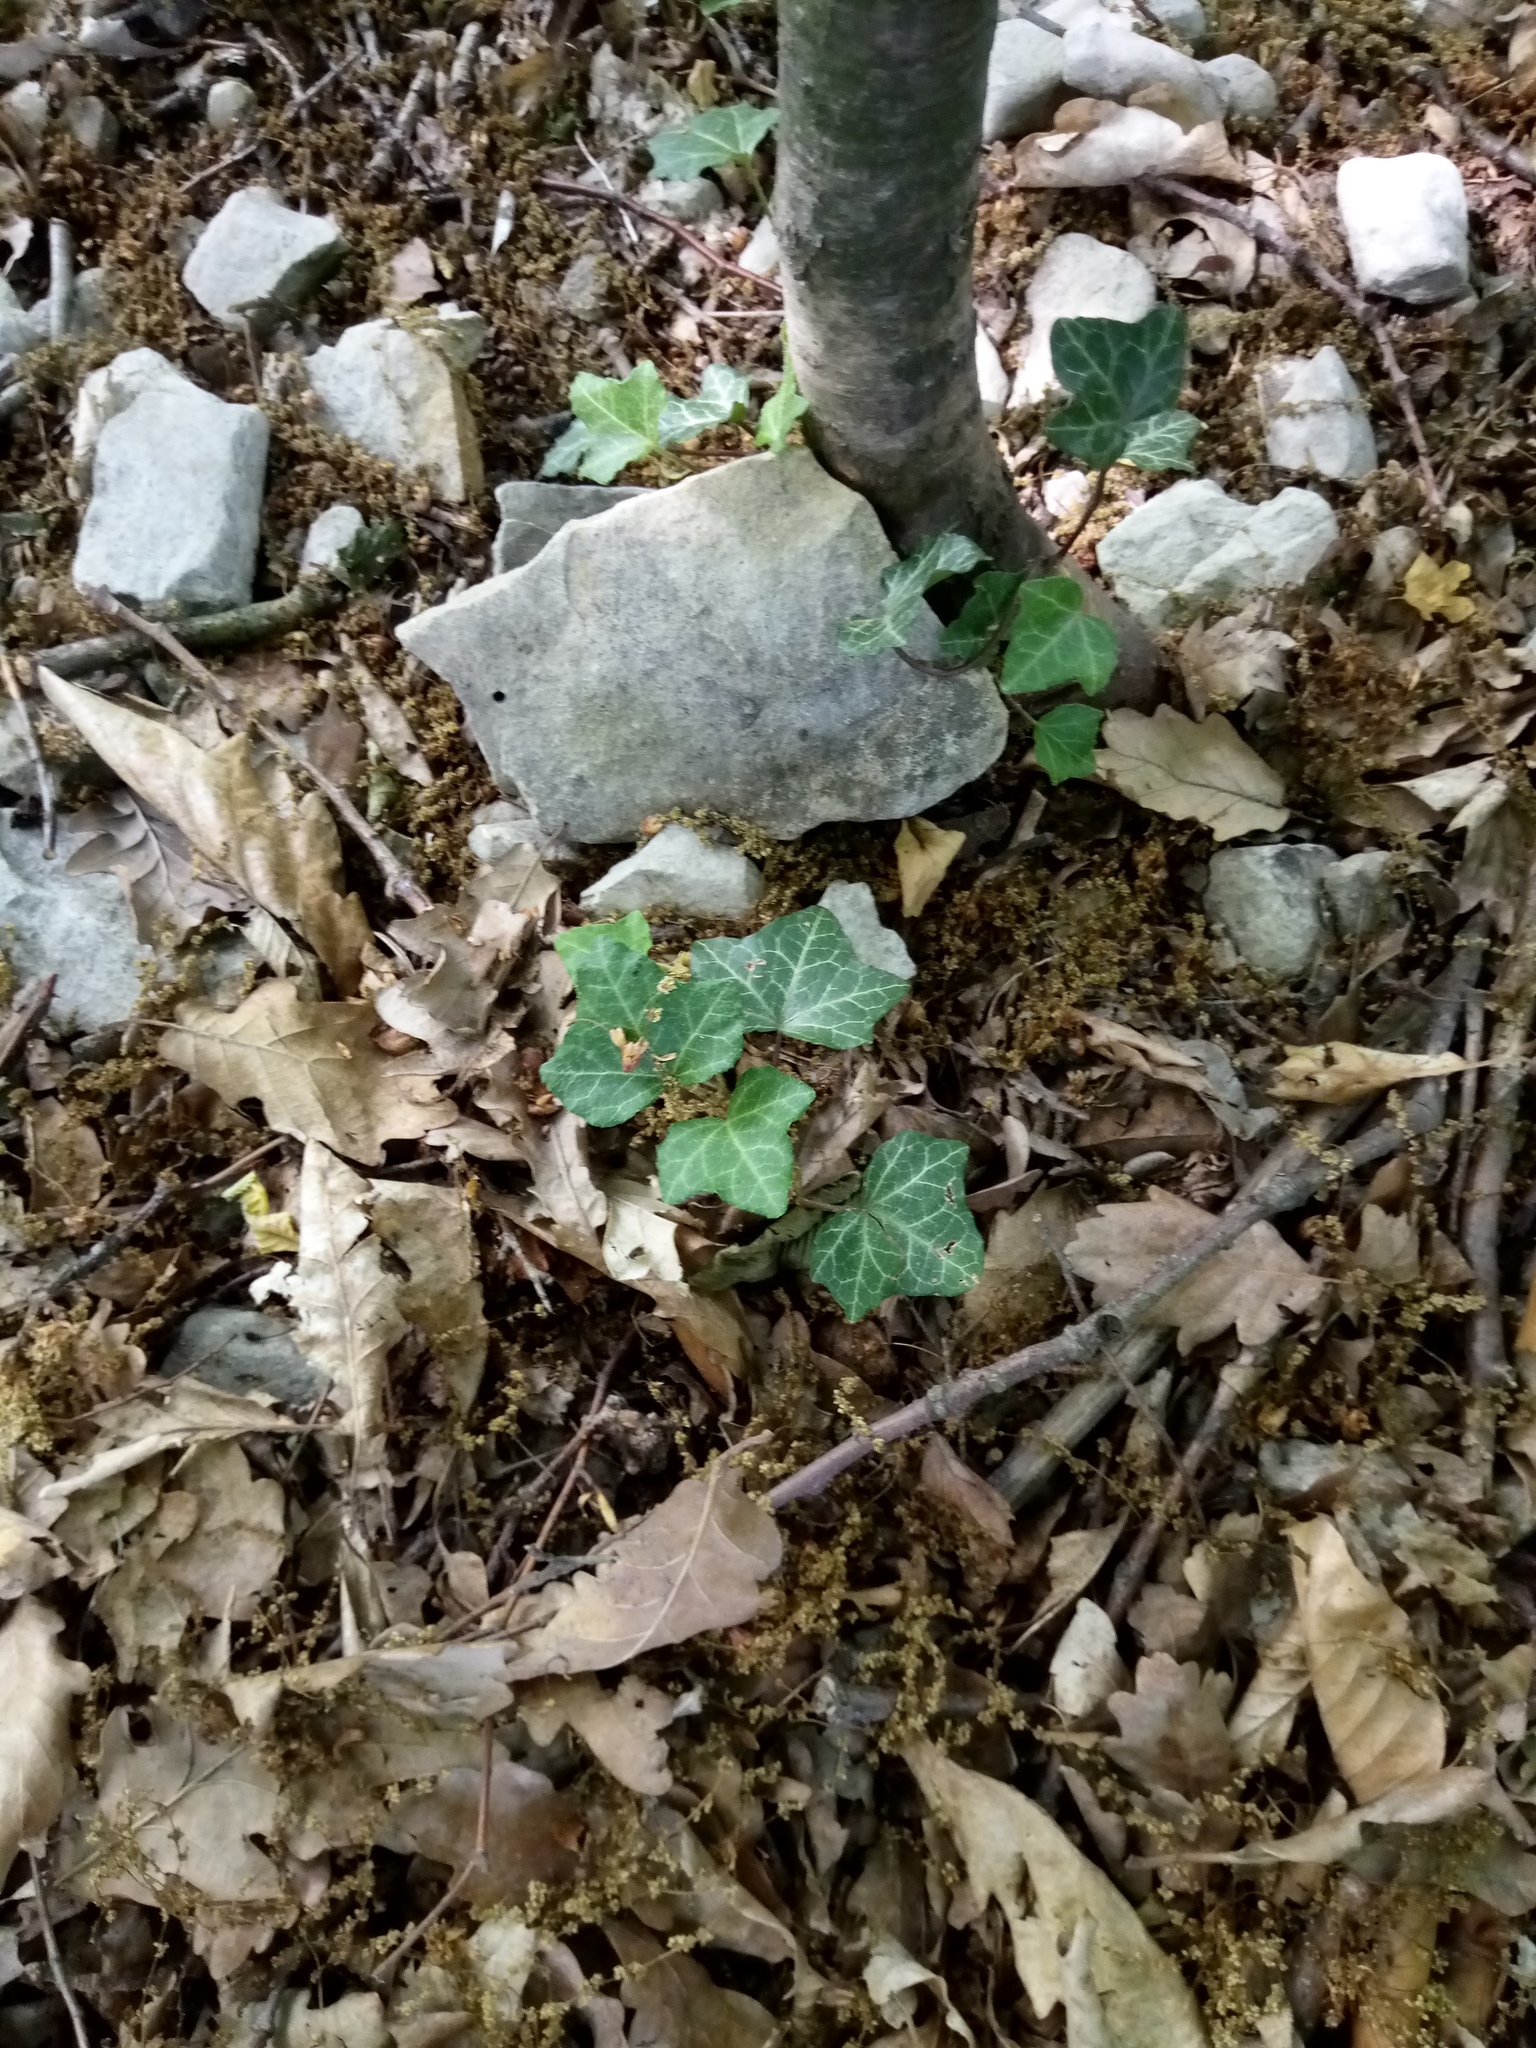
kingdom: Plantae
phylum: Tracheophyta
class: Magnoliopsida
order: Apiales
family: Araliaceae
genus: Hedera
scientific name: Hedera helix
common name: Ivy
